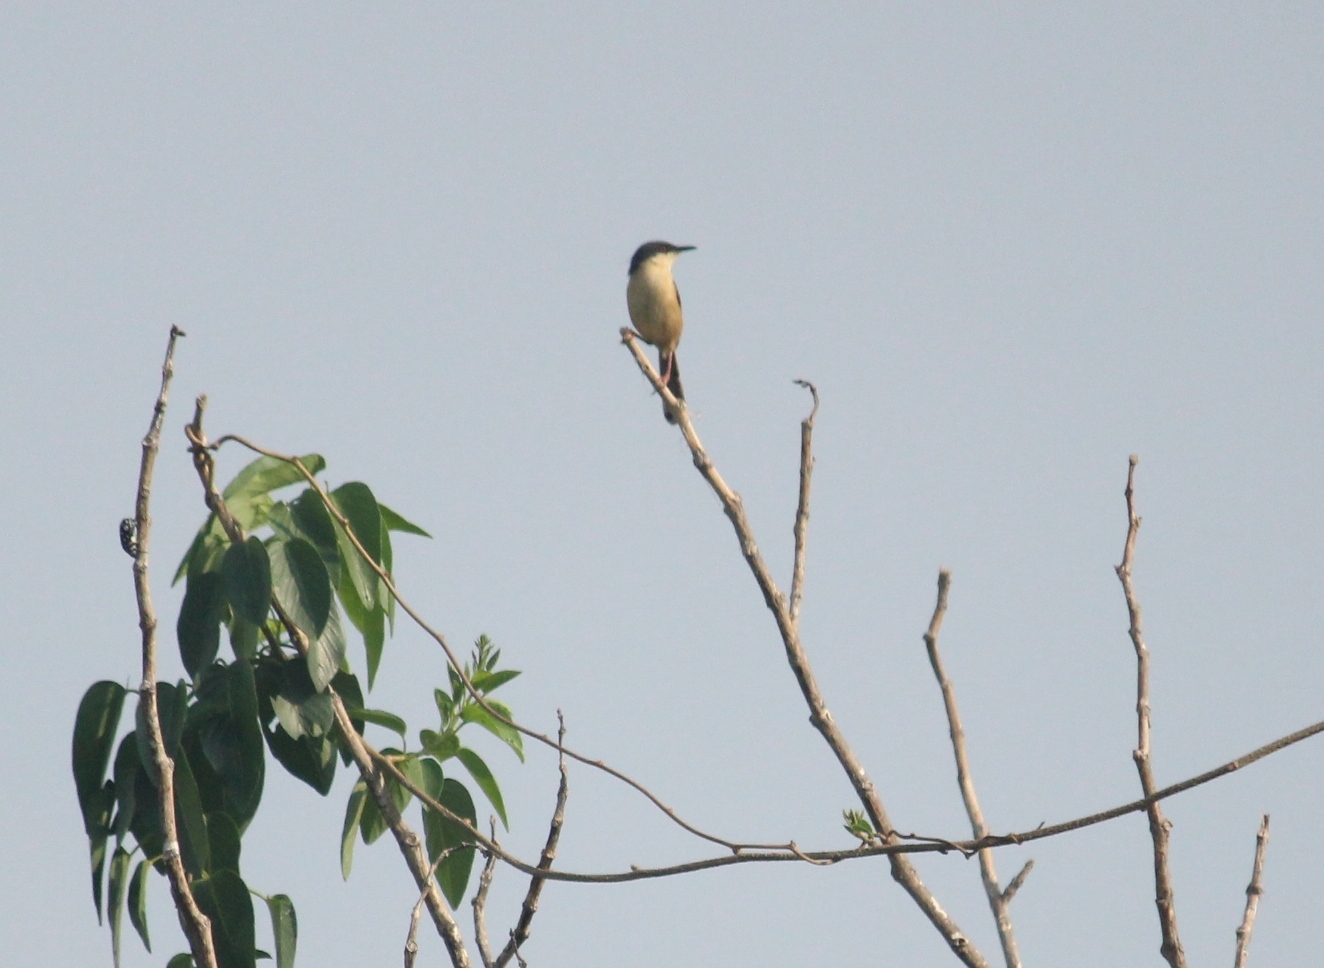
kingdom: Animalia
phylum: Chordata
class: Aves
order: Passeriformes
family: Cisticolidae
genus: Prinia
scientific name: Prinia socialis
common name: Ashy prinia
